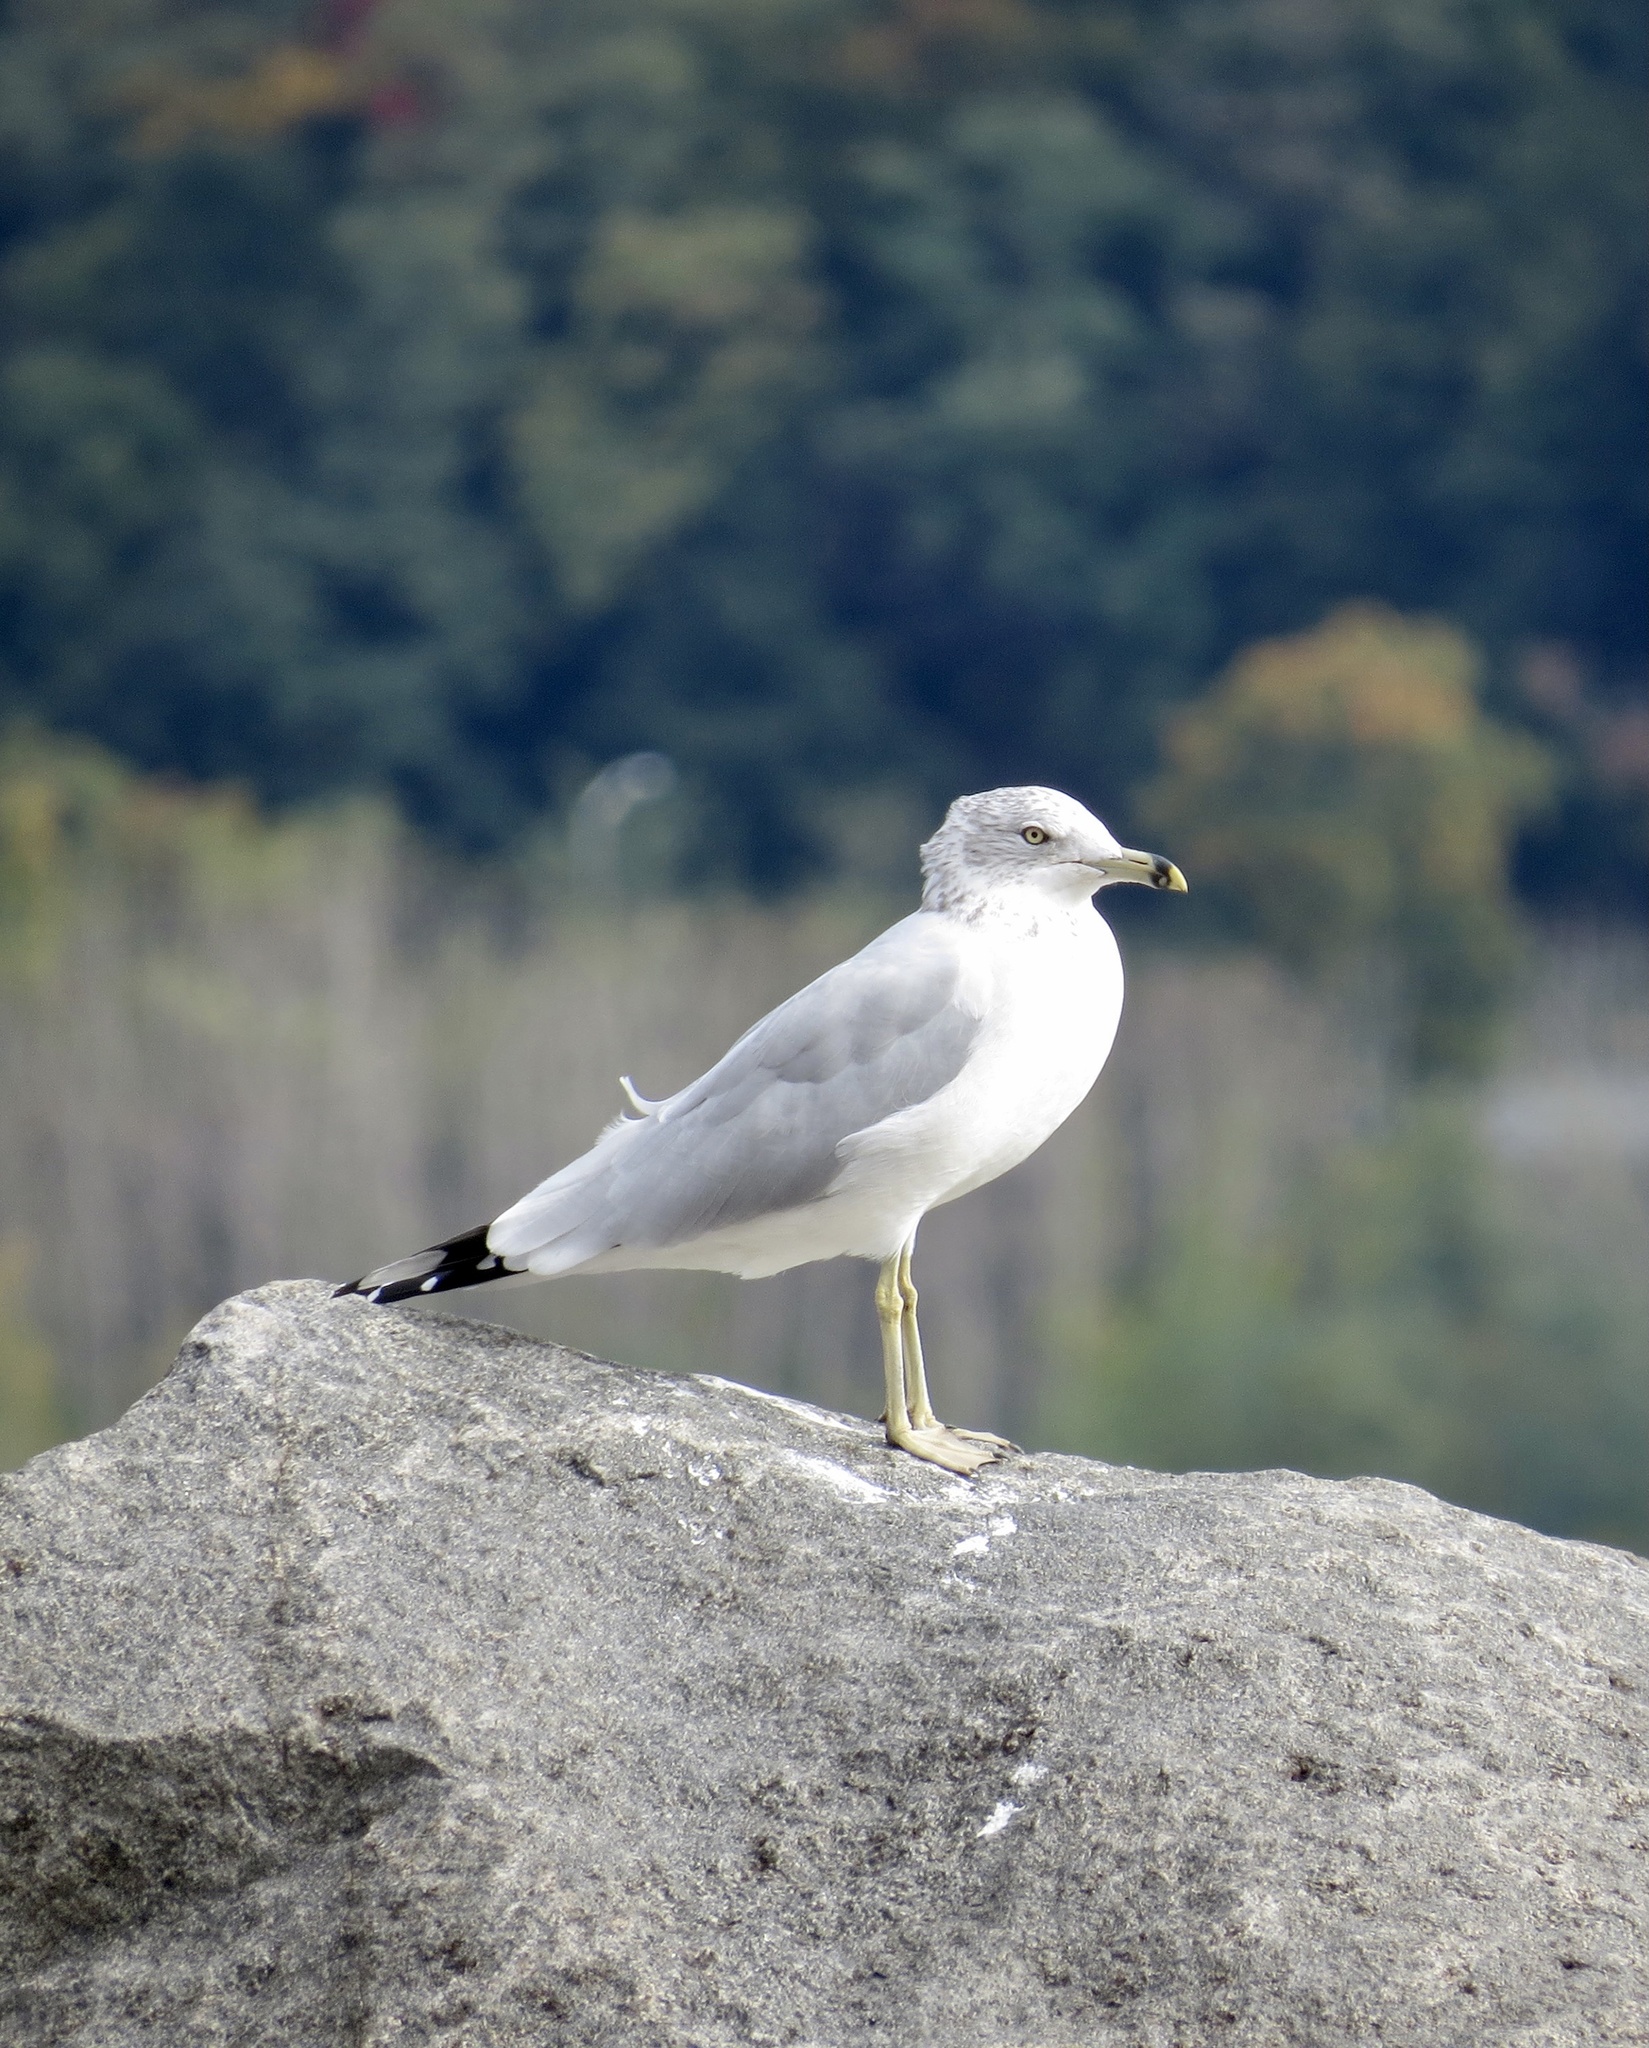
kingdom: Animalia
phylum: Chordata
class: Aves
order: Charadriiformes
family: Laridae
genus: Larus
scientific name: Larus delawarensis
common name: Ring-billed gull
